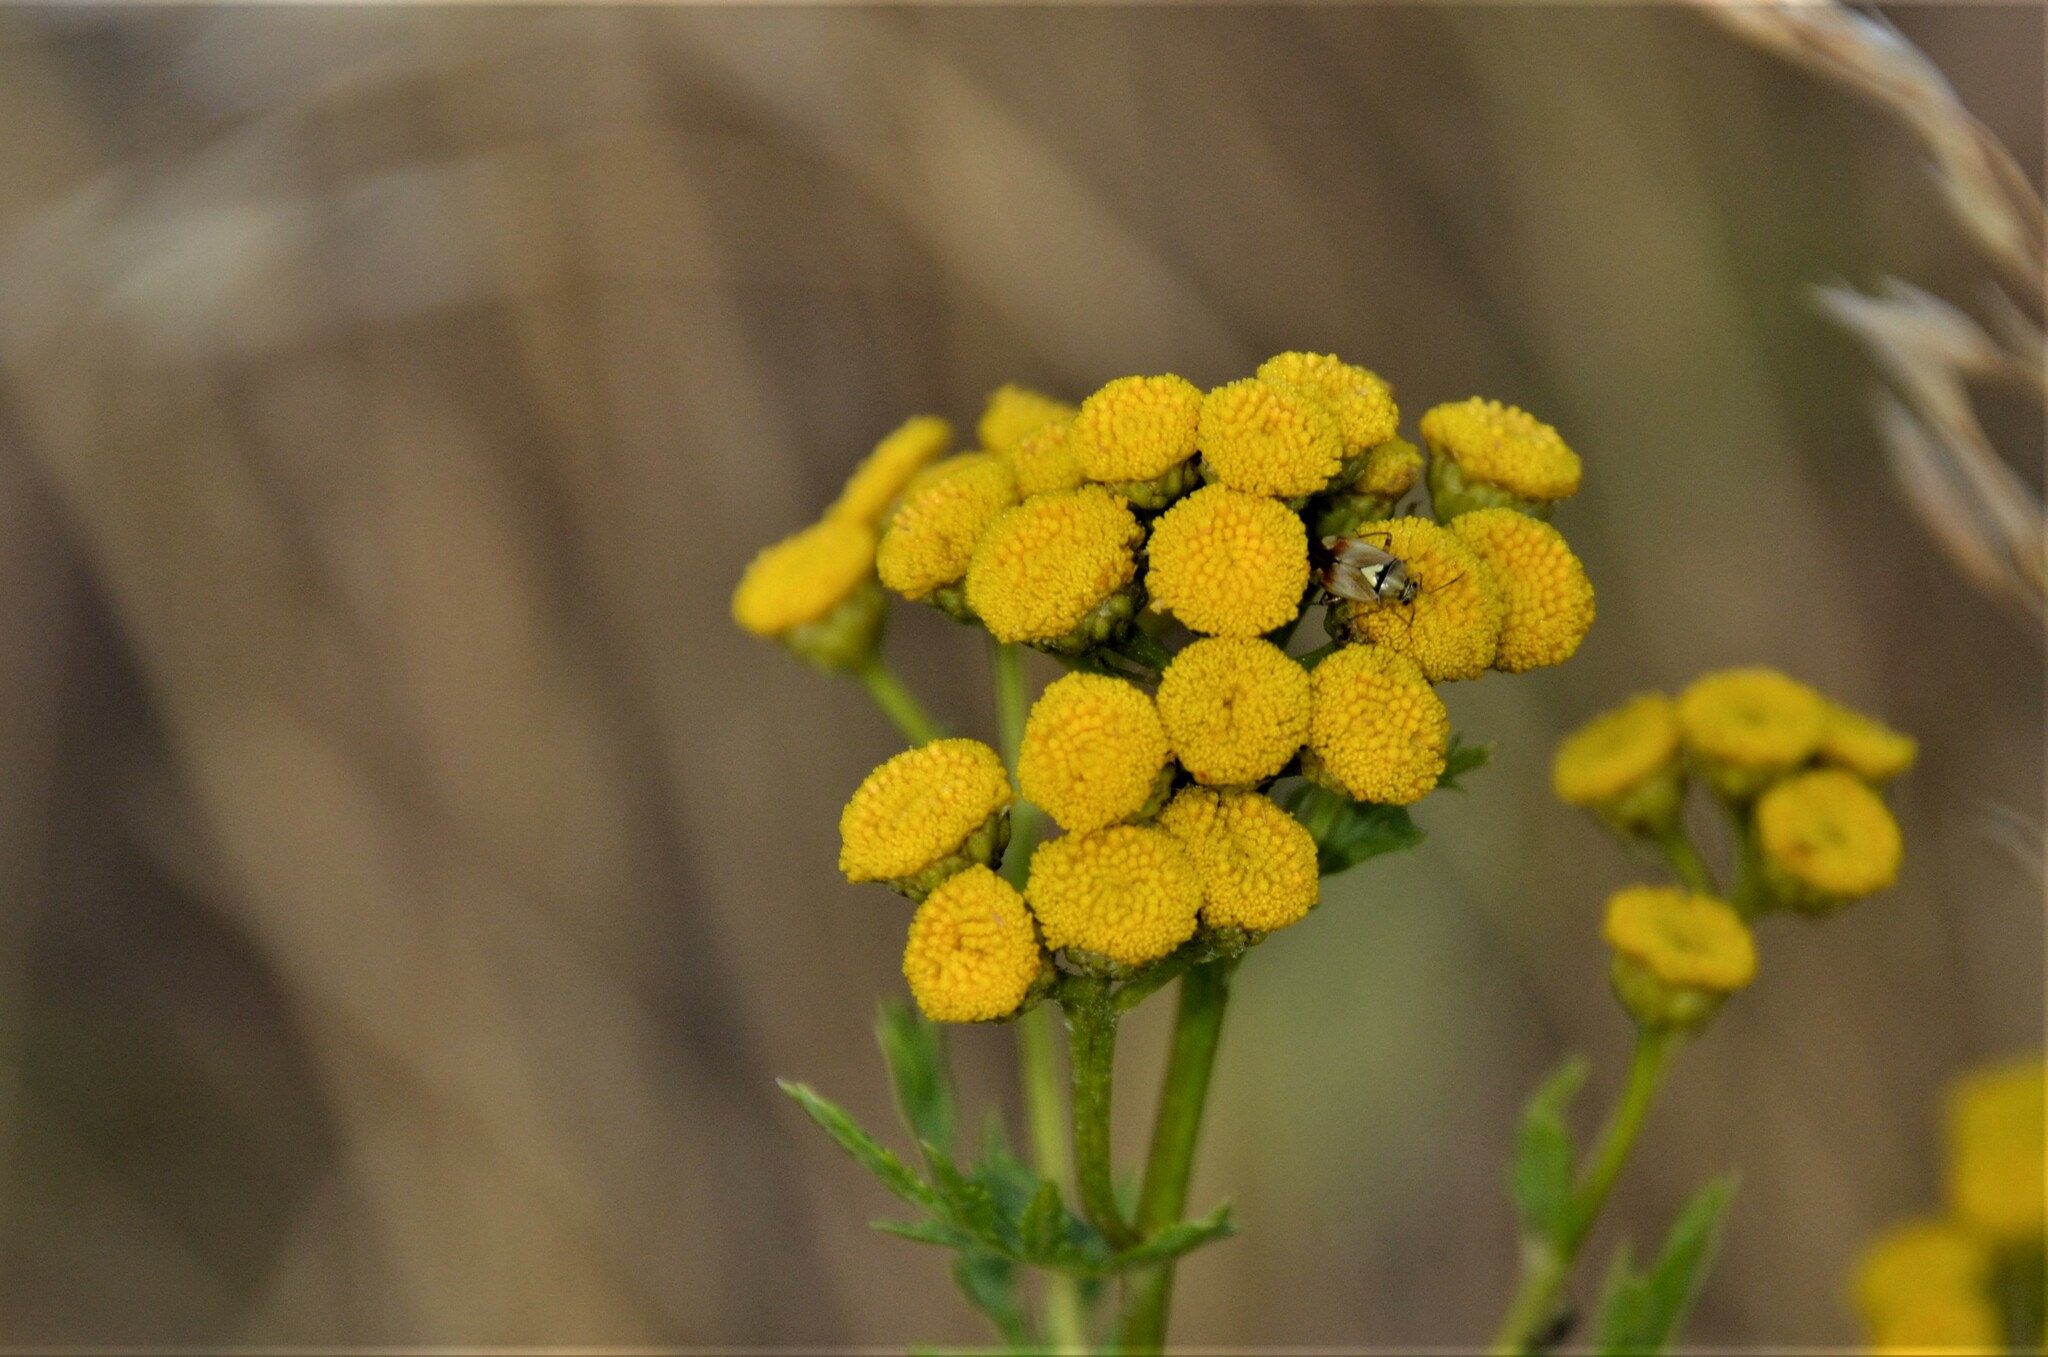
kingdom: Plantae
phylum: Tracheophyta
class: Magnoliopsida
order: Asterales
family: Asteraceae
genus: Tanacetum
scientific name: Tanacetum vulgare
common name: Common tansy
